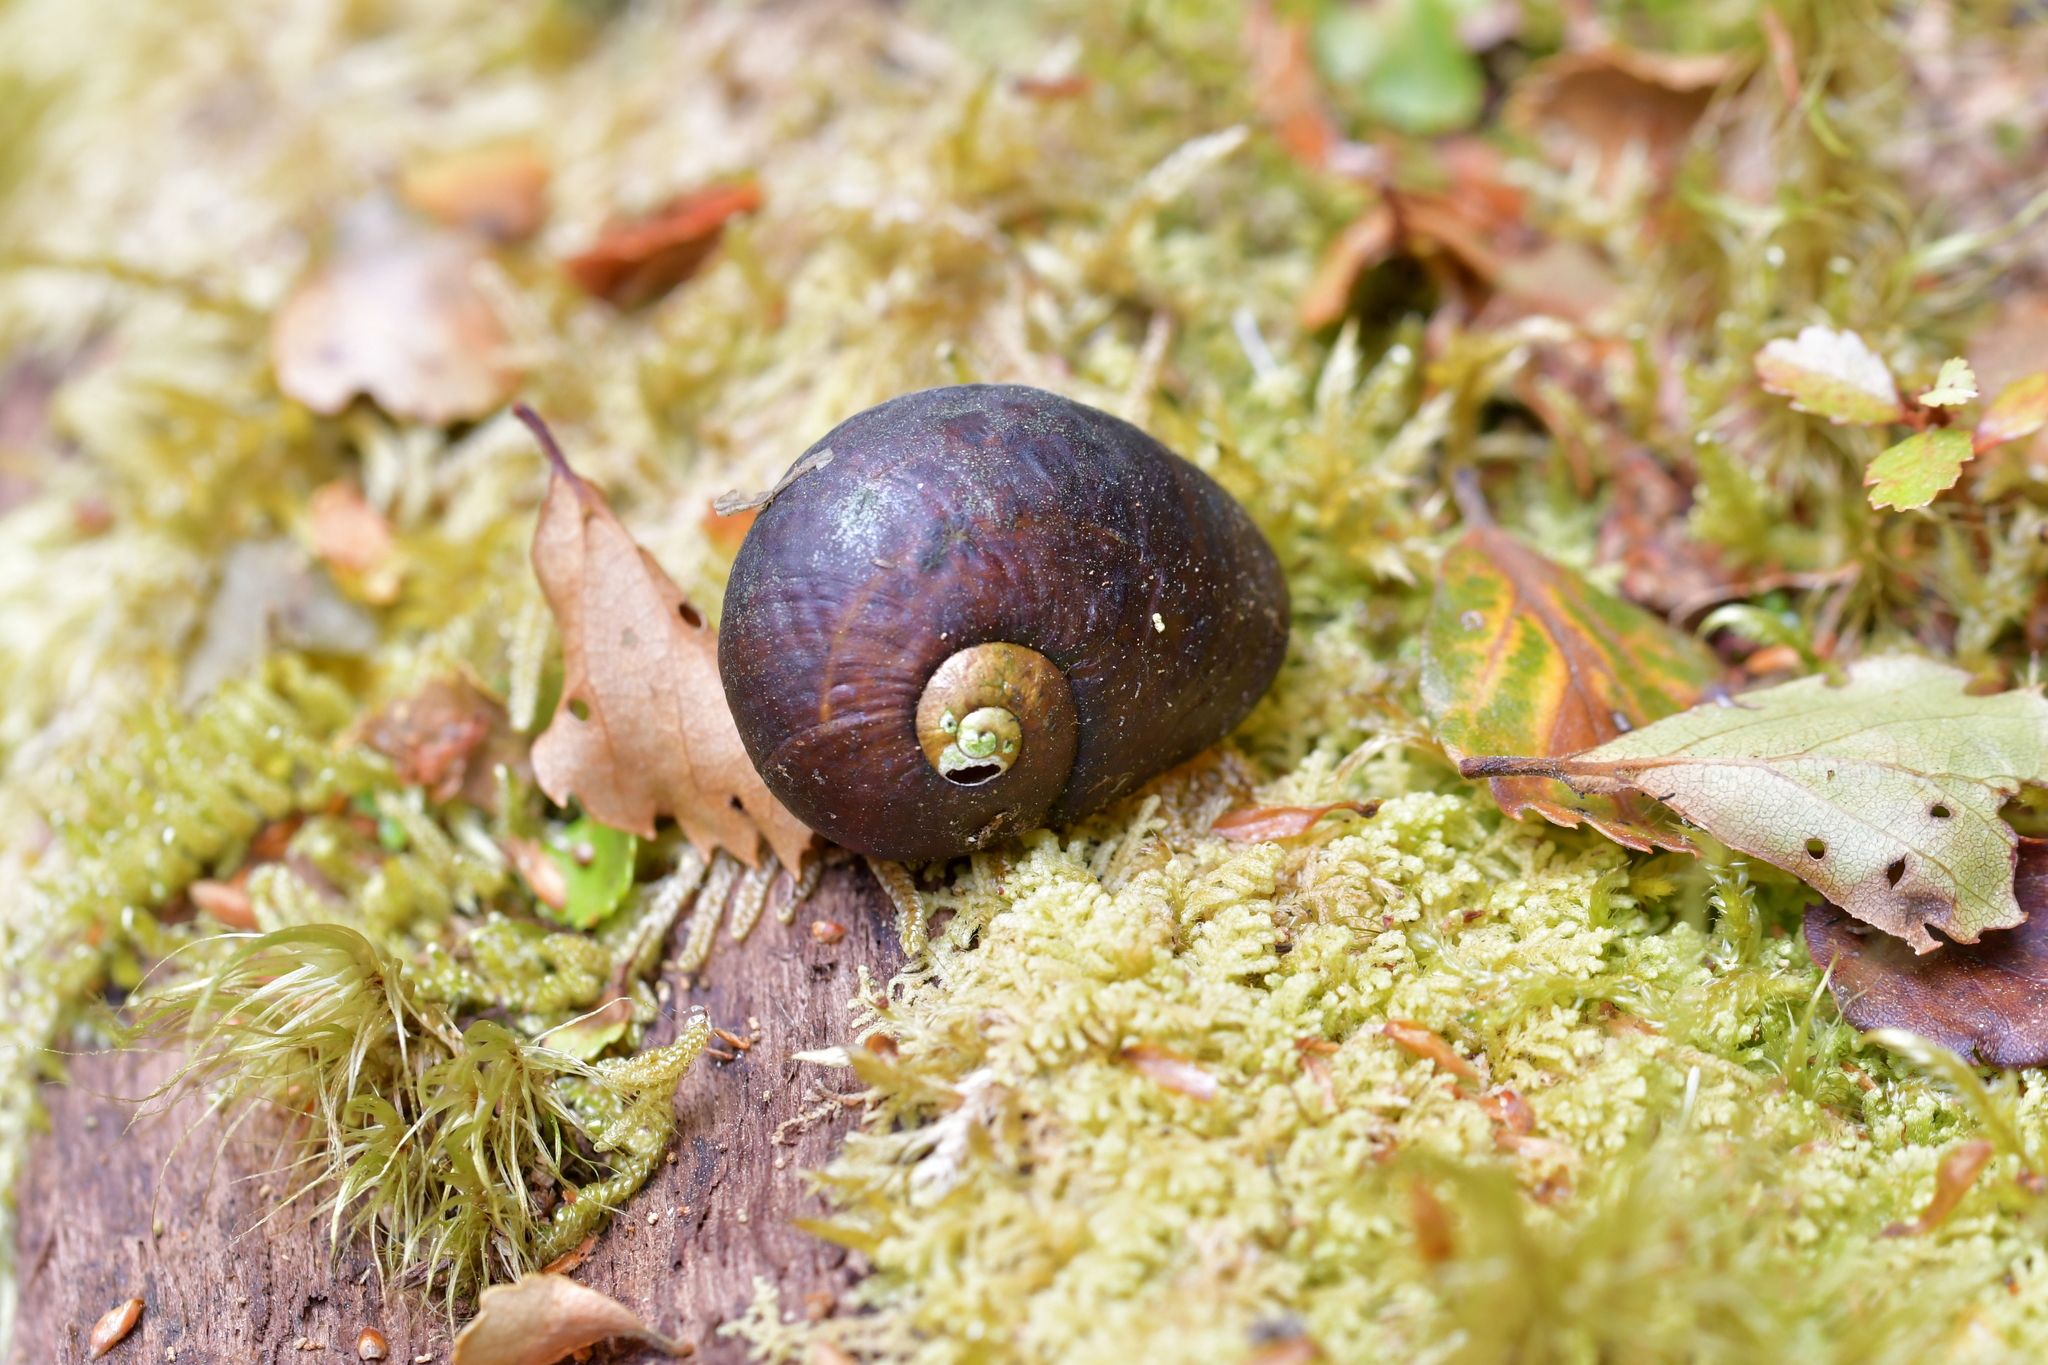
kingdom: Animalia
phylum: Mollusca
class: Gastropoda
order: Stylommatophora
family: Rhytididae
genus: Wainuia
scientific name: Wainuia urnula
